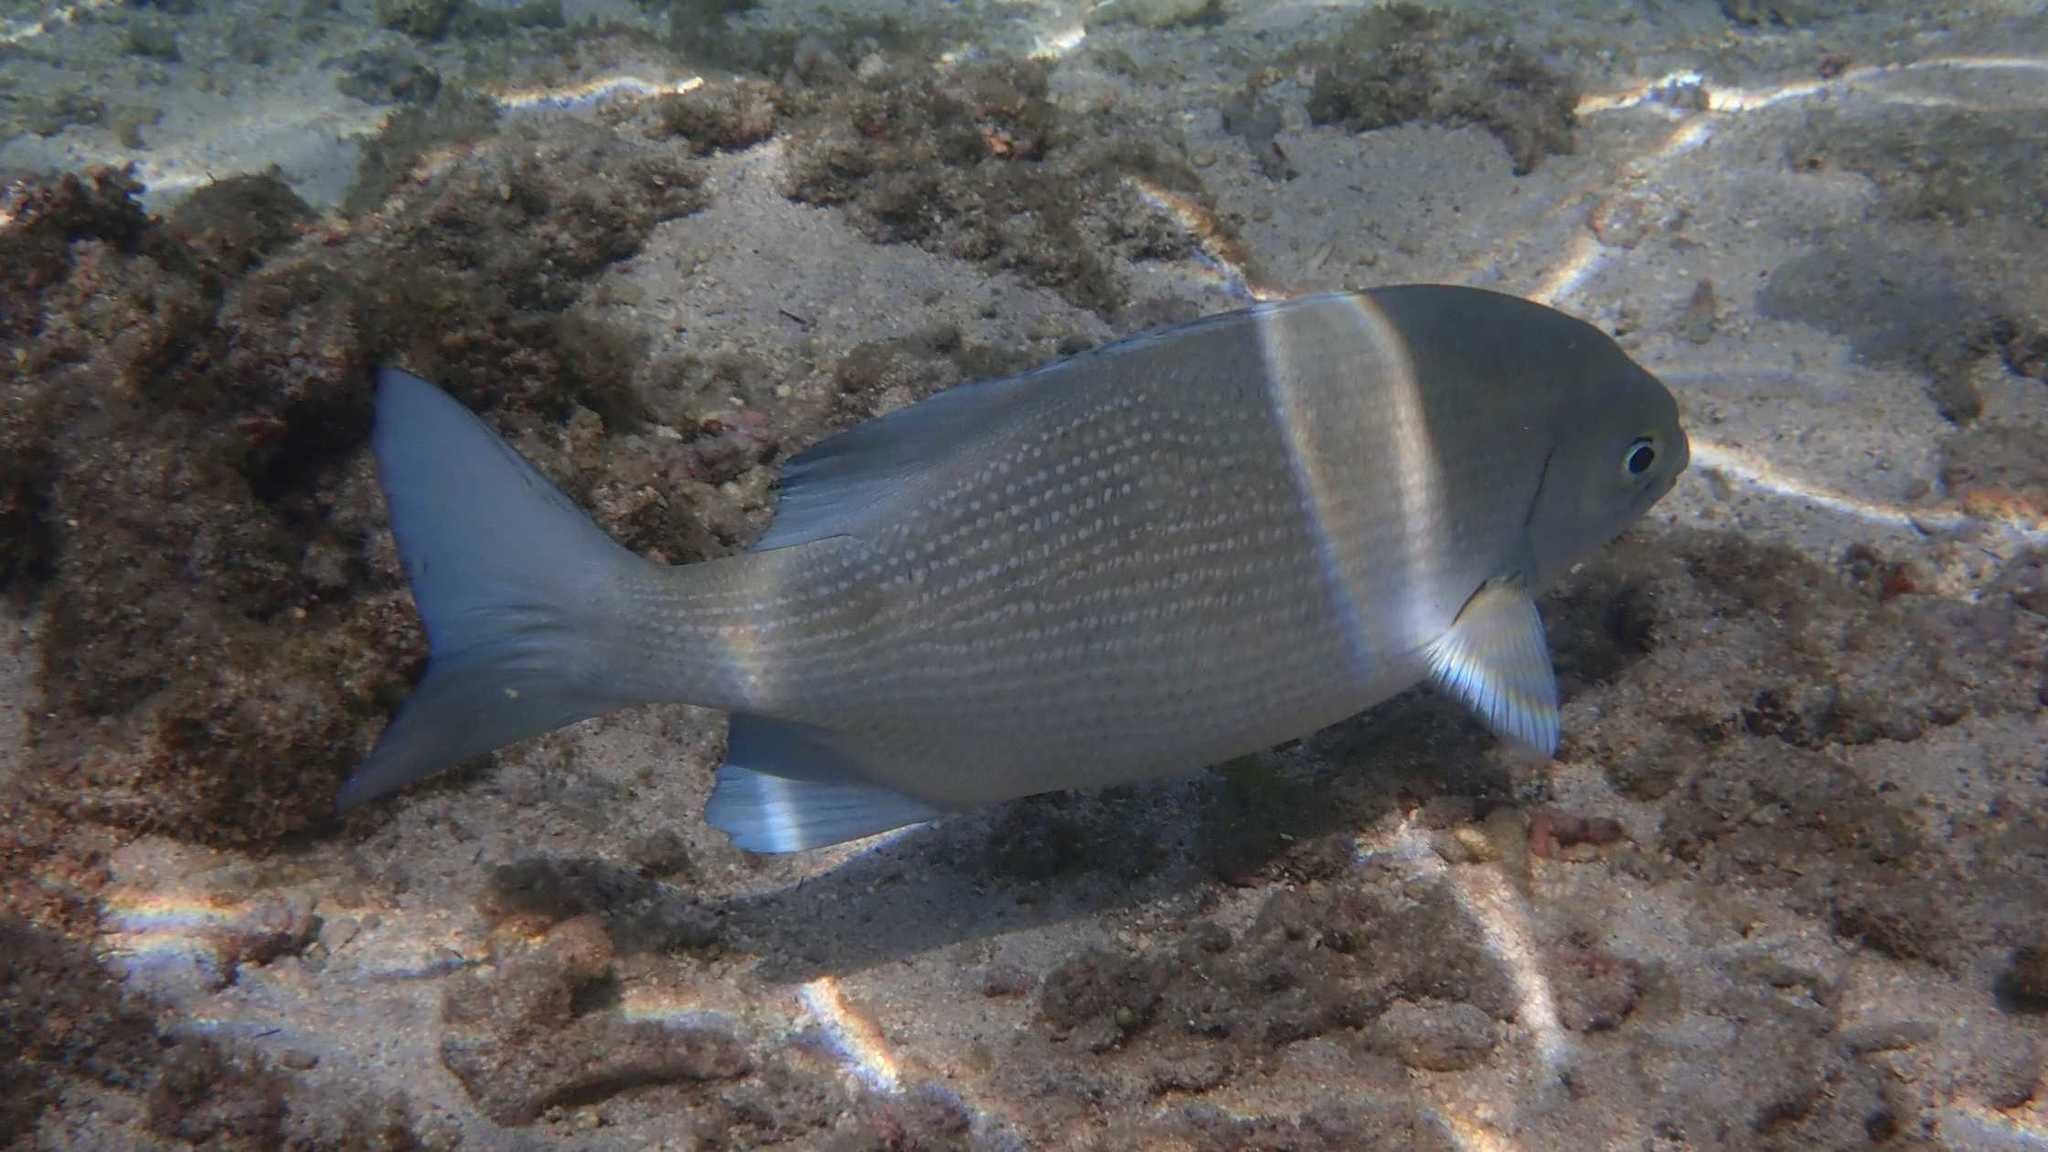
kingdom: Animalia
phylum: Chordata
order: Perciformes
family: Kyphosidae
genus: Kyphosus
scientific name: Kyphosus cinerascens
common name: Topsail drummer
